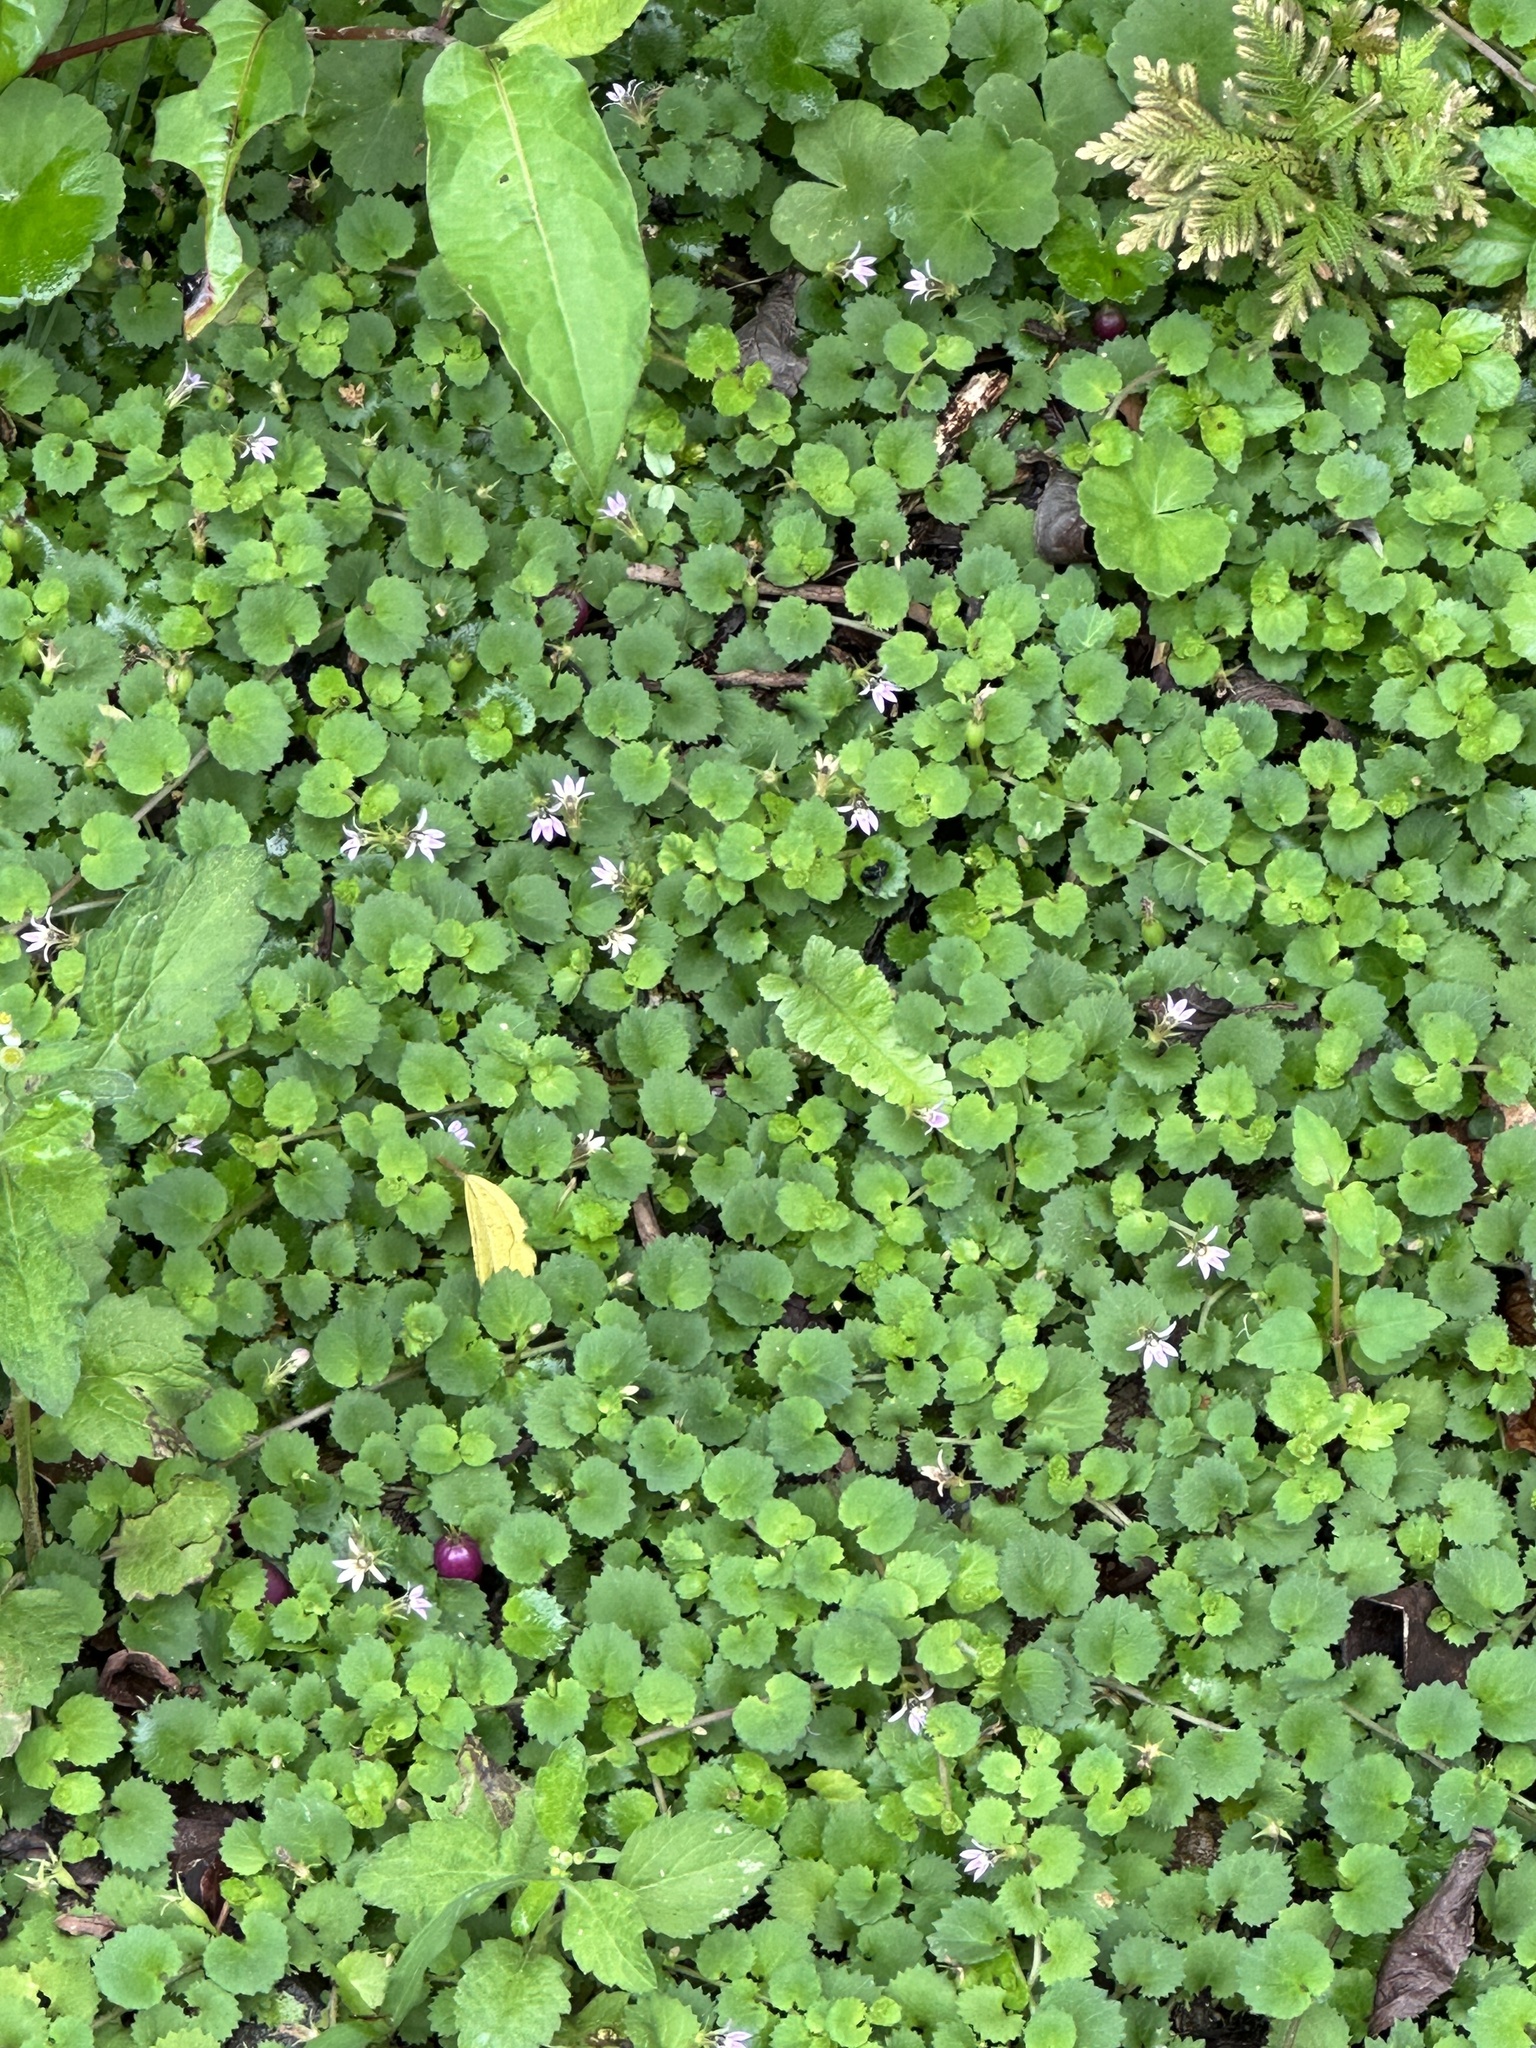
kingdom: Plantae
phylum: Tracheophyta
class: Magnoliopsida
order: Asterales
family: Campanulaceae
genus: Lobelia
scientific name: Lobelia nummularia
